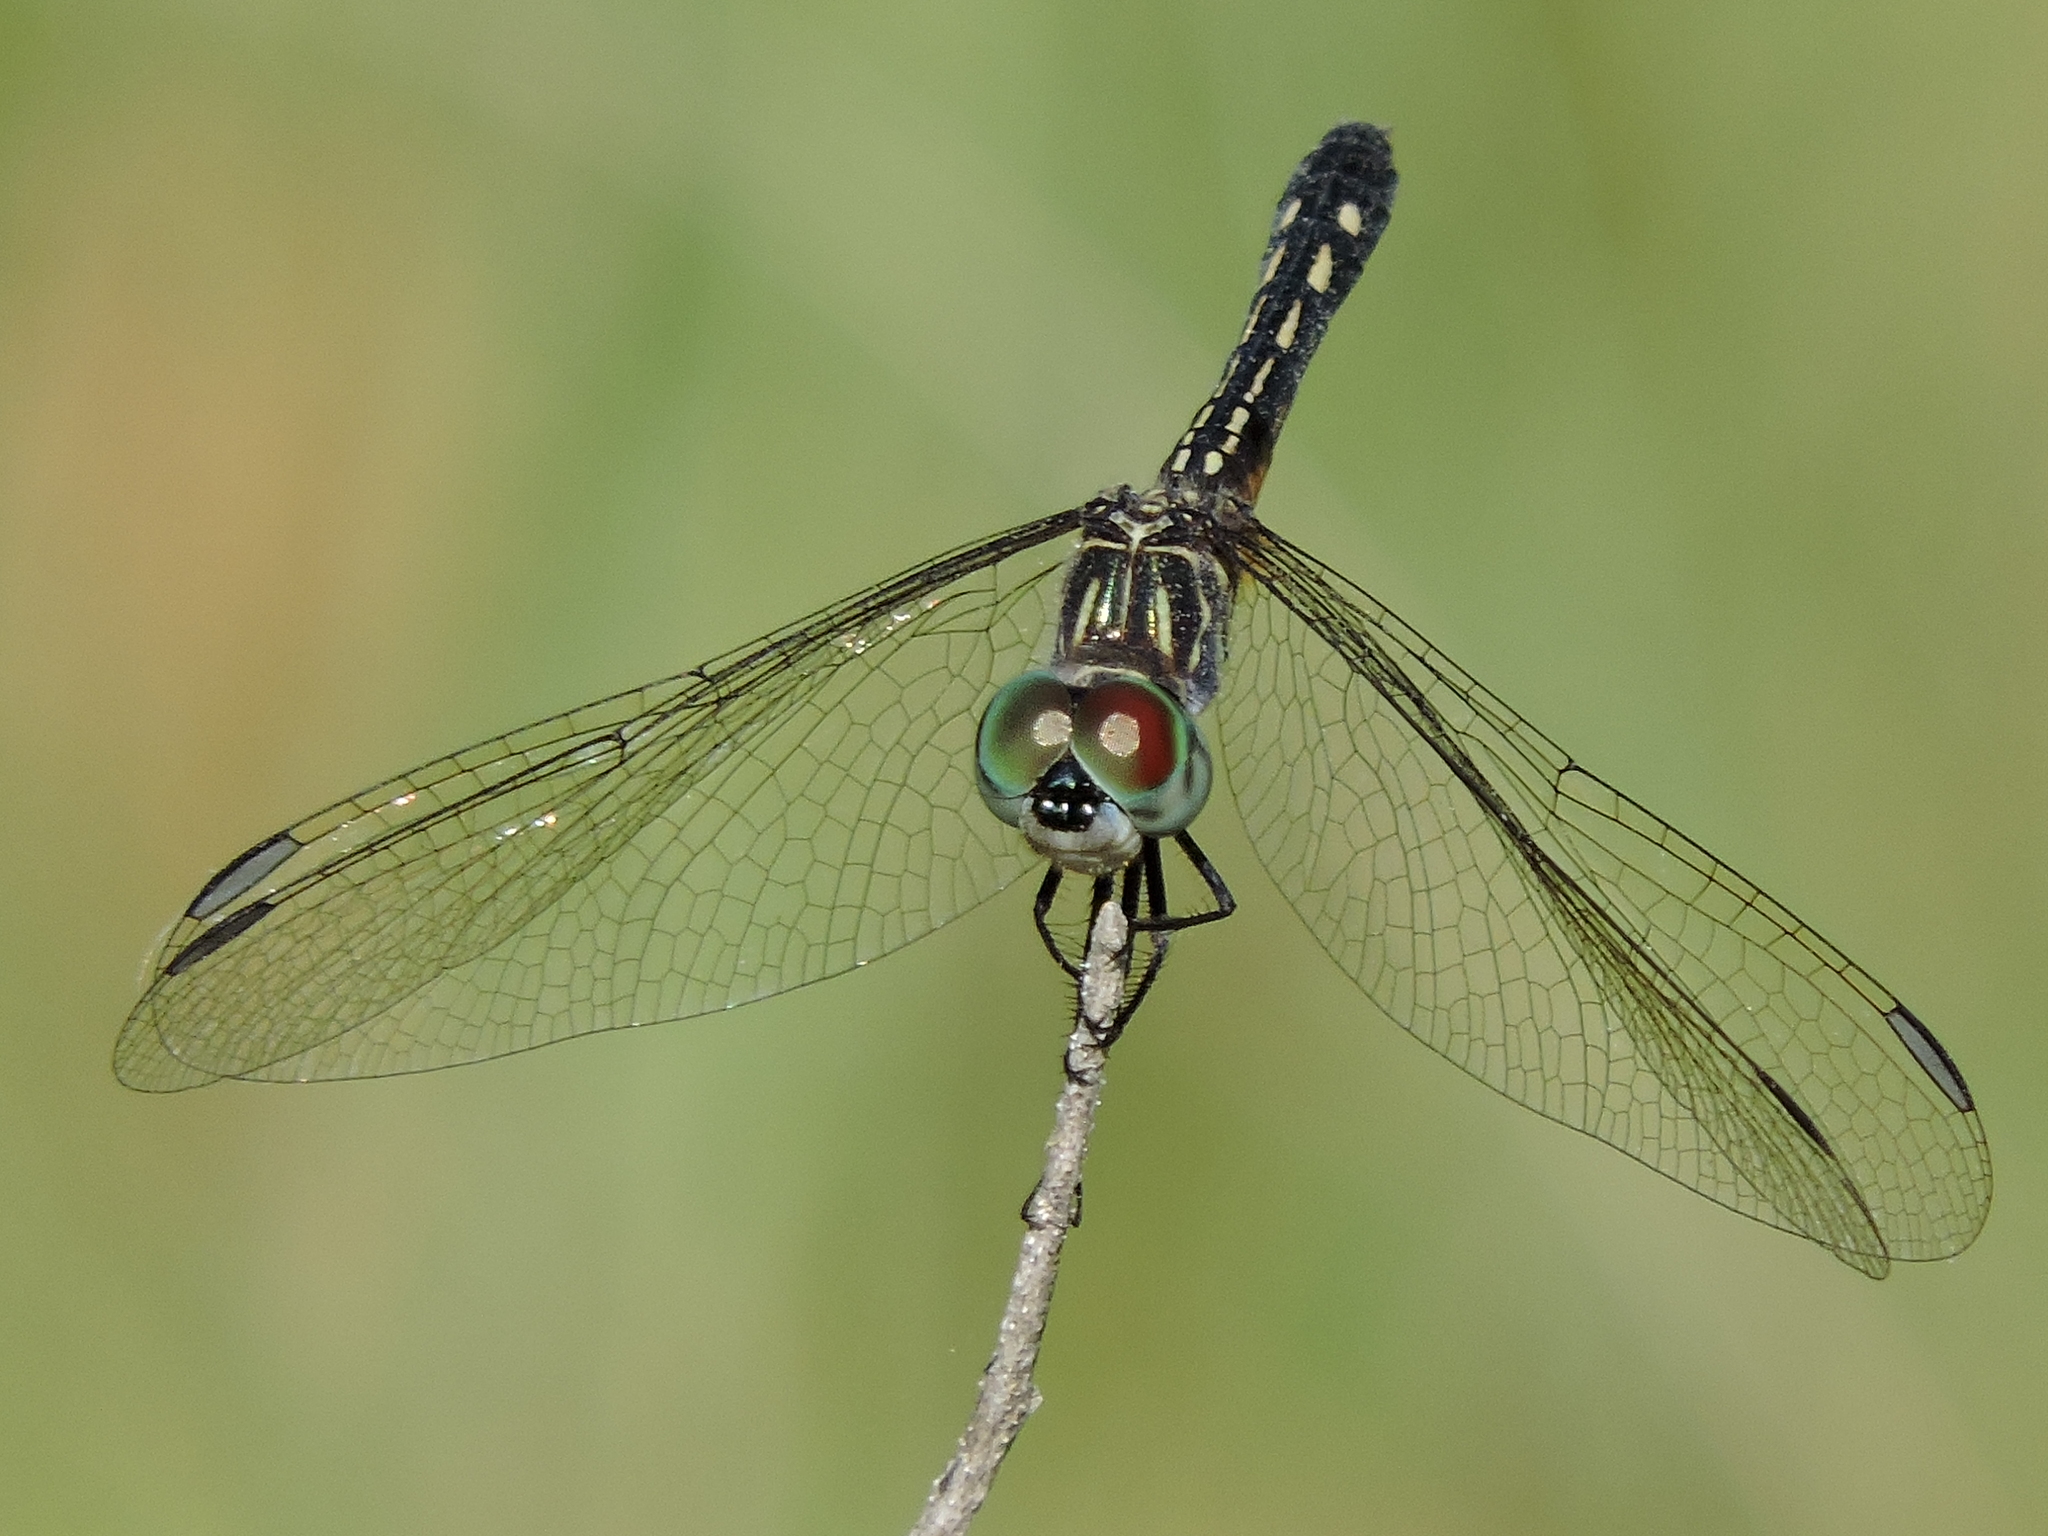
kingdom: Animalia
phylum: Arthropoda
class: Insecta
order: Odonata
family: Libellulidae
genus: Pachydiplax
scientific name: Pachydiplax longipennis
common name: Blue dasher
